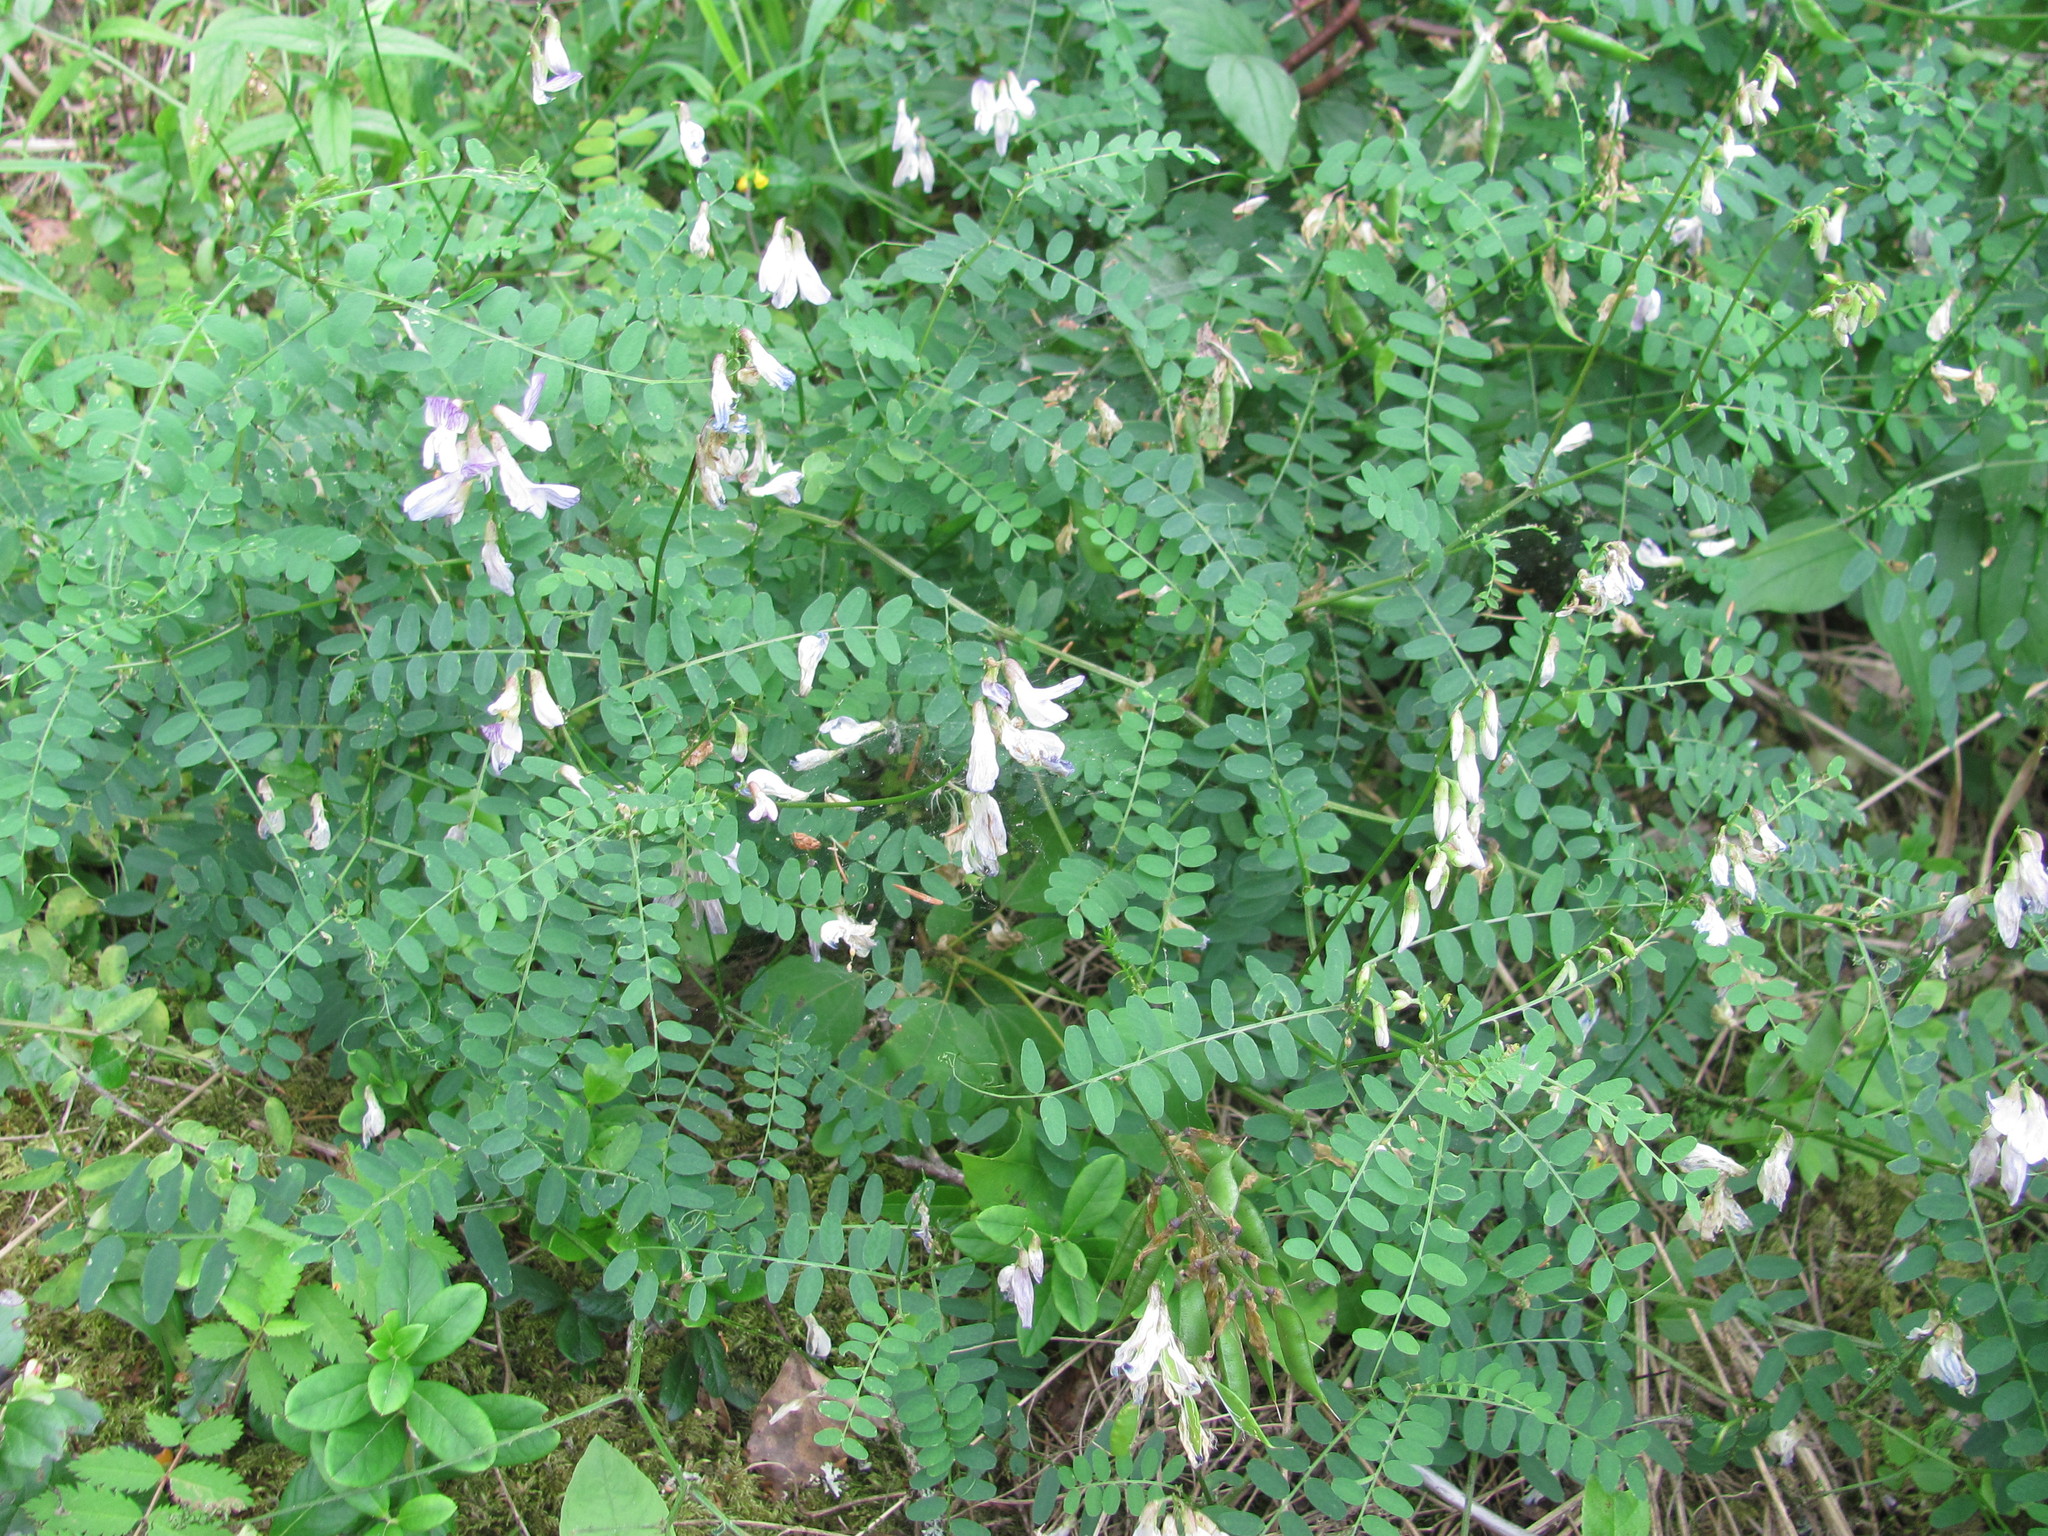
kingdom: Plantae
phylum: Tracheophyta
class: Magnoliopsida
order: Fabales
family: Fabaceae
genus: Vicia
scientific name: Vicia sylvatica
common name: Wood vetch
